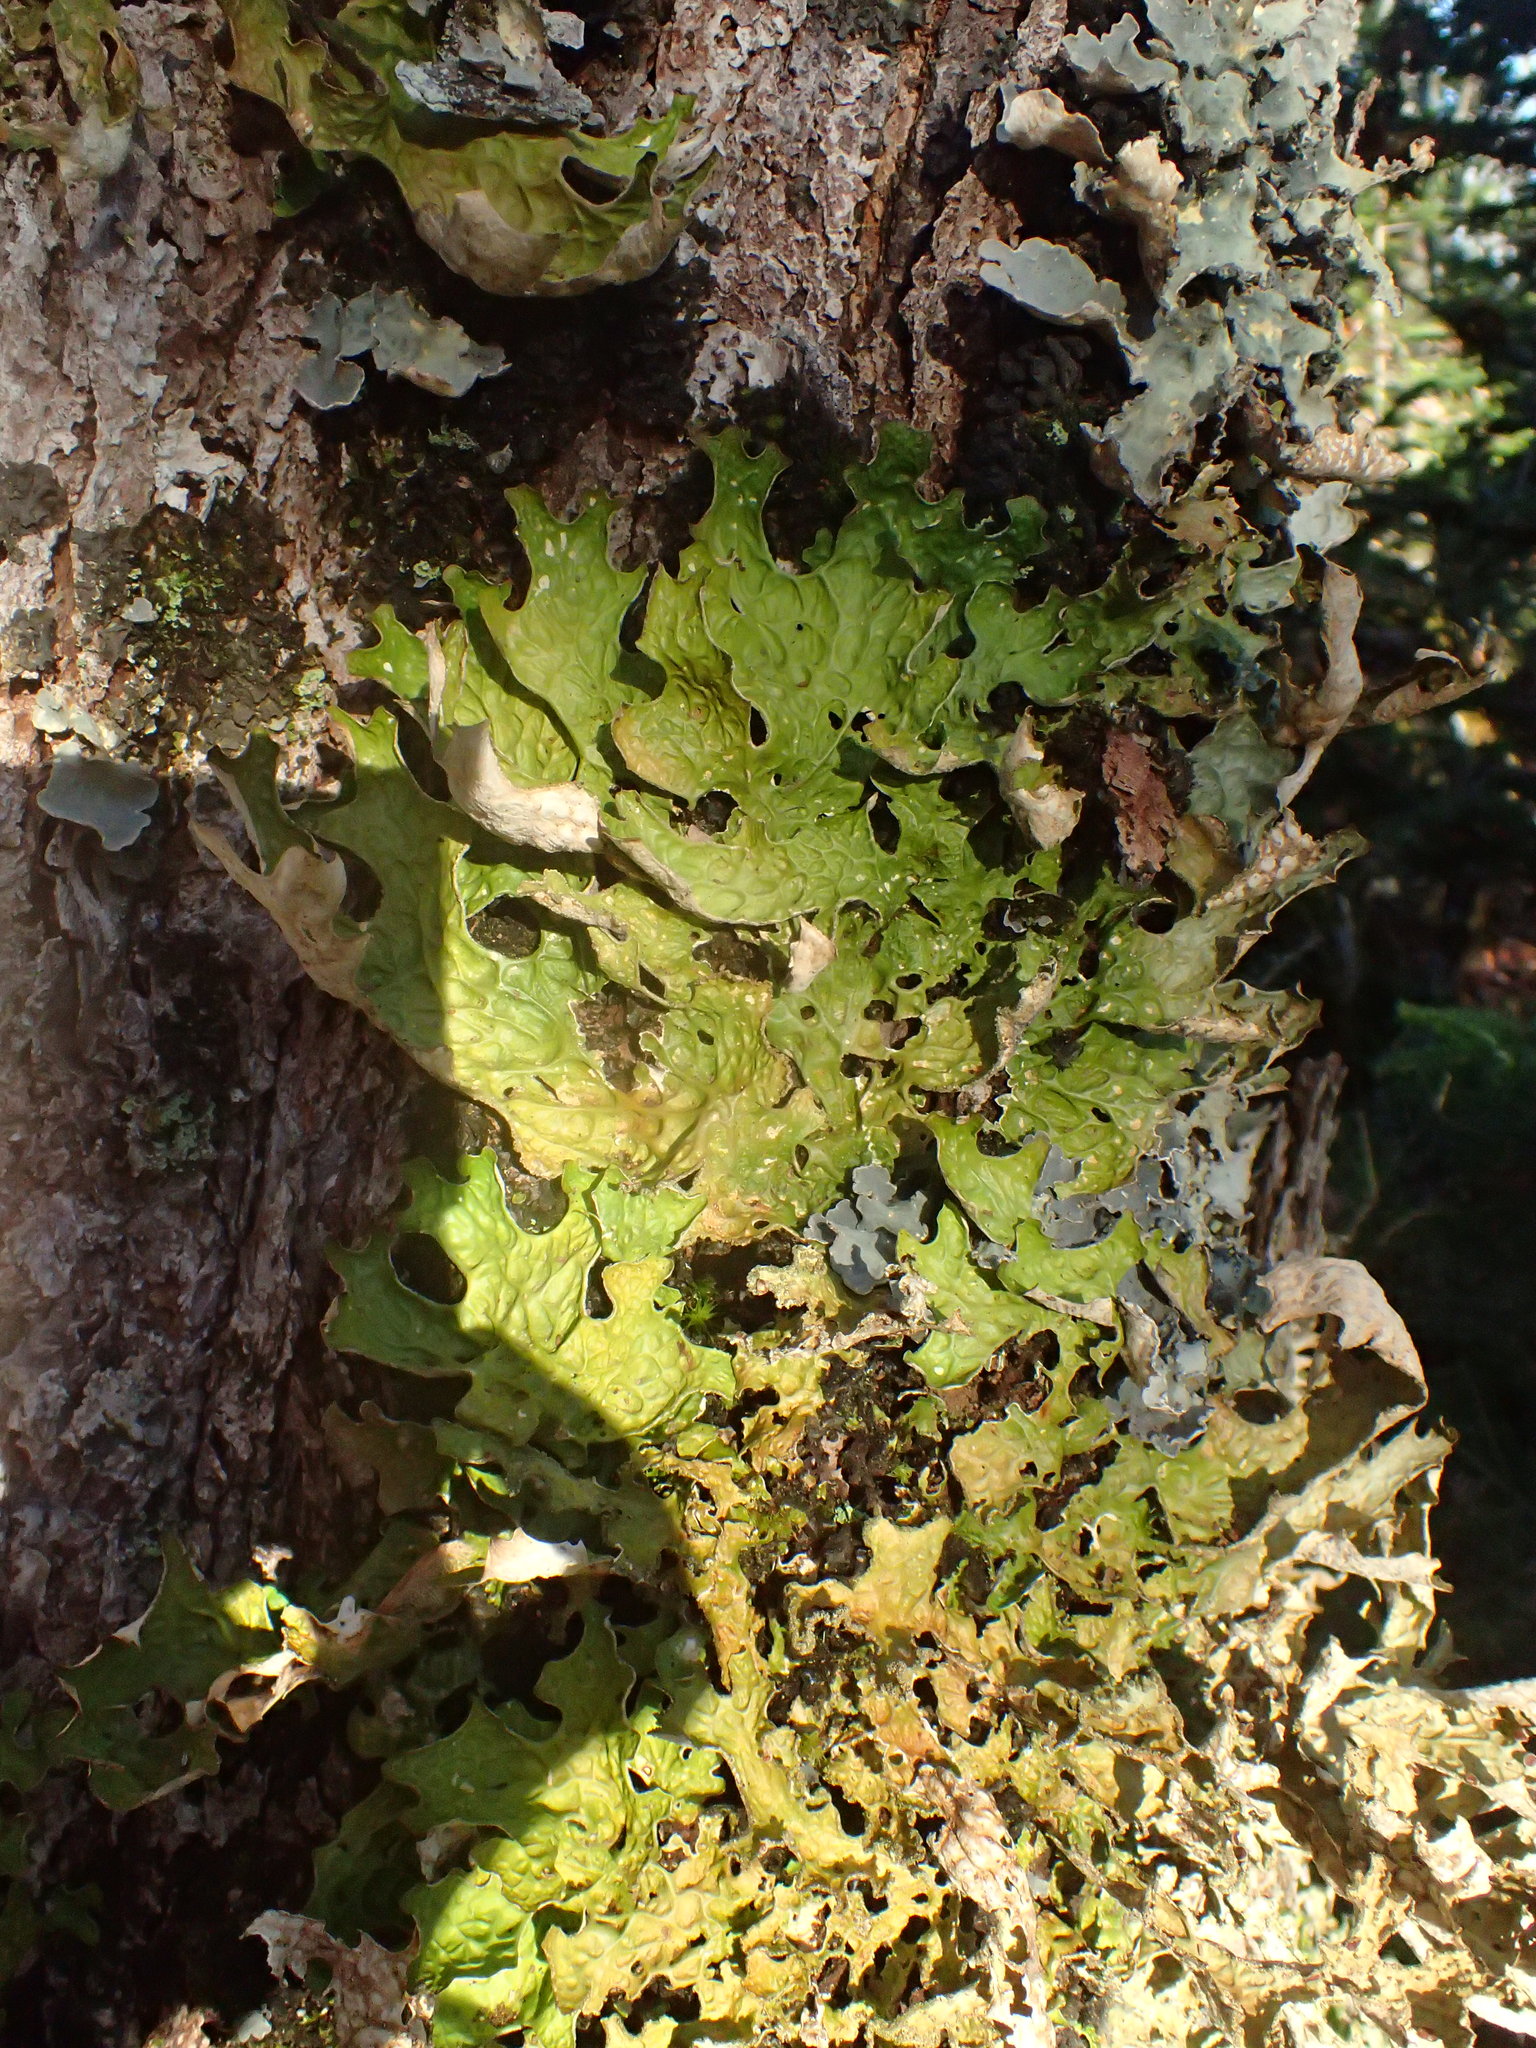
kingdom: Fungi
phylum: Ascomycota
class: Lecanoromycetes
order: Peltigerales
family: Lobariaceae
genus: Lobaria
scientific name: Lobaria pulmonaria
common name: Lungwort
